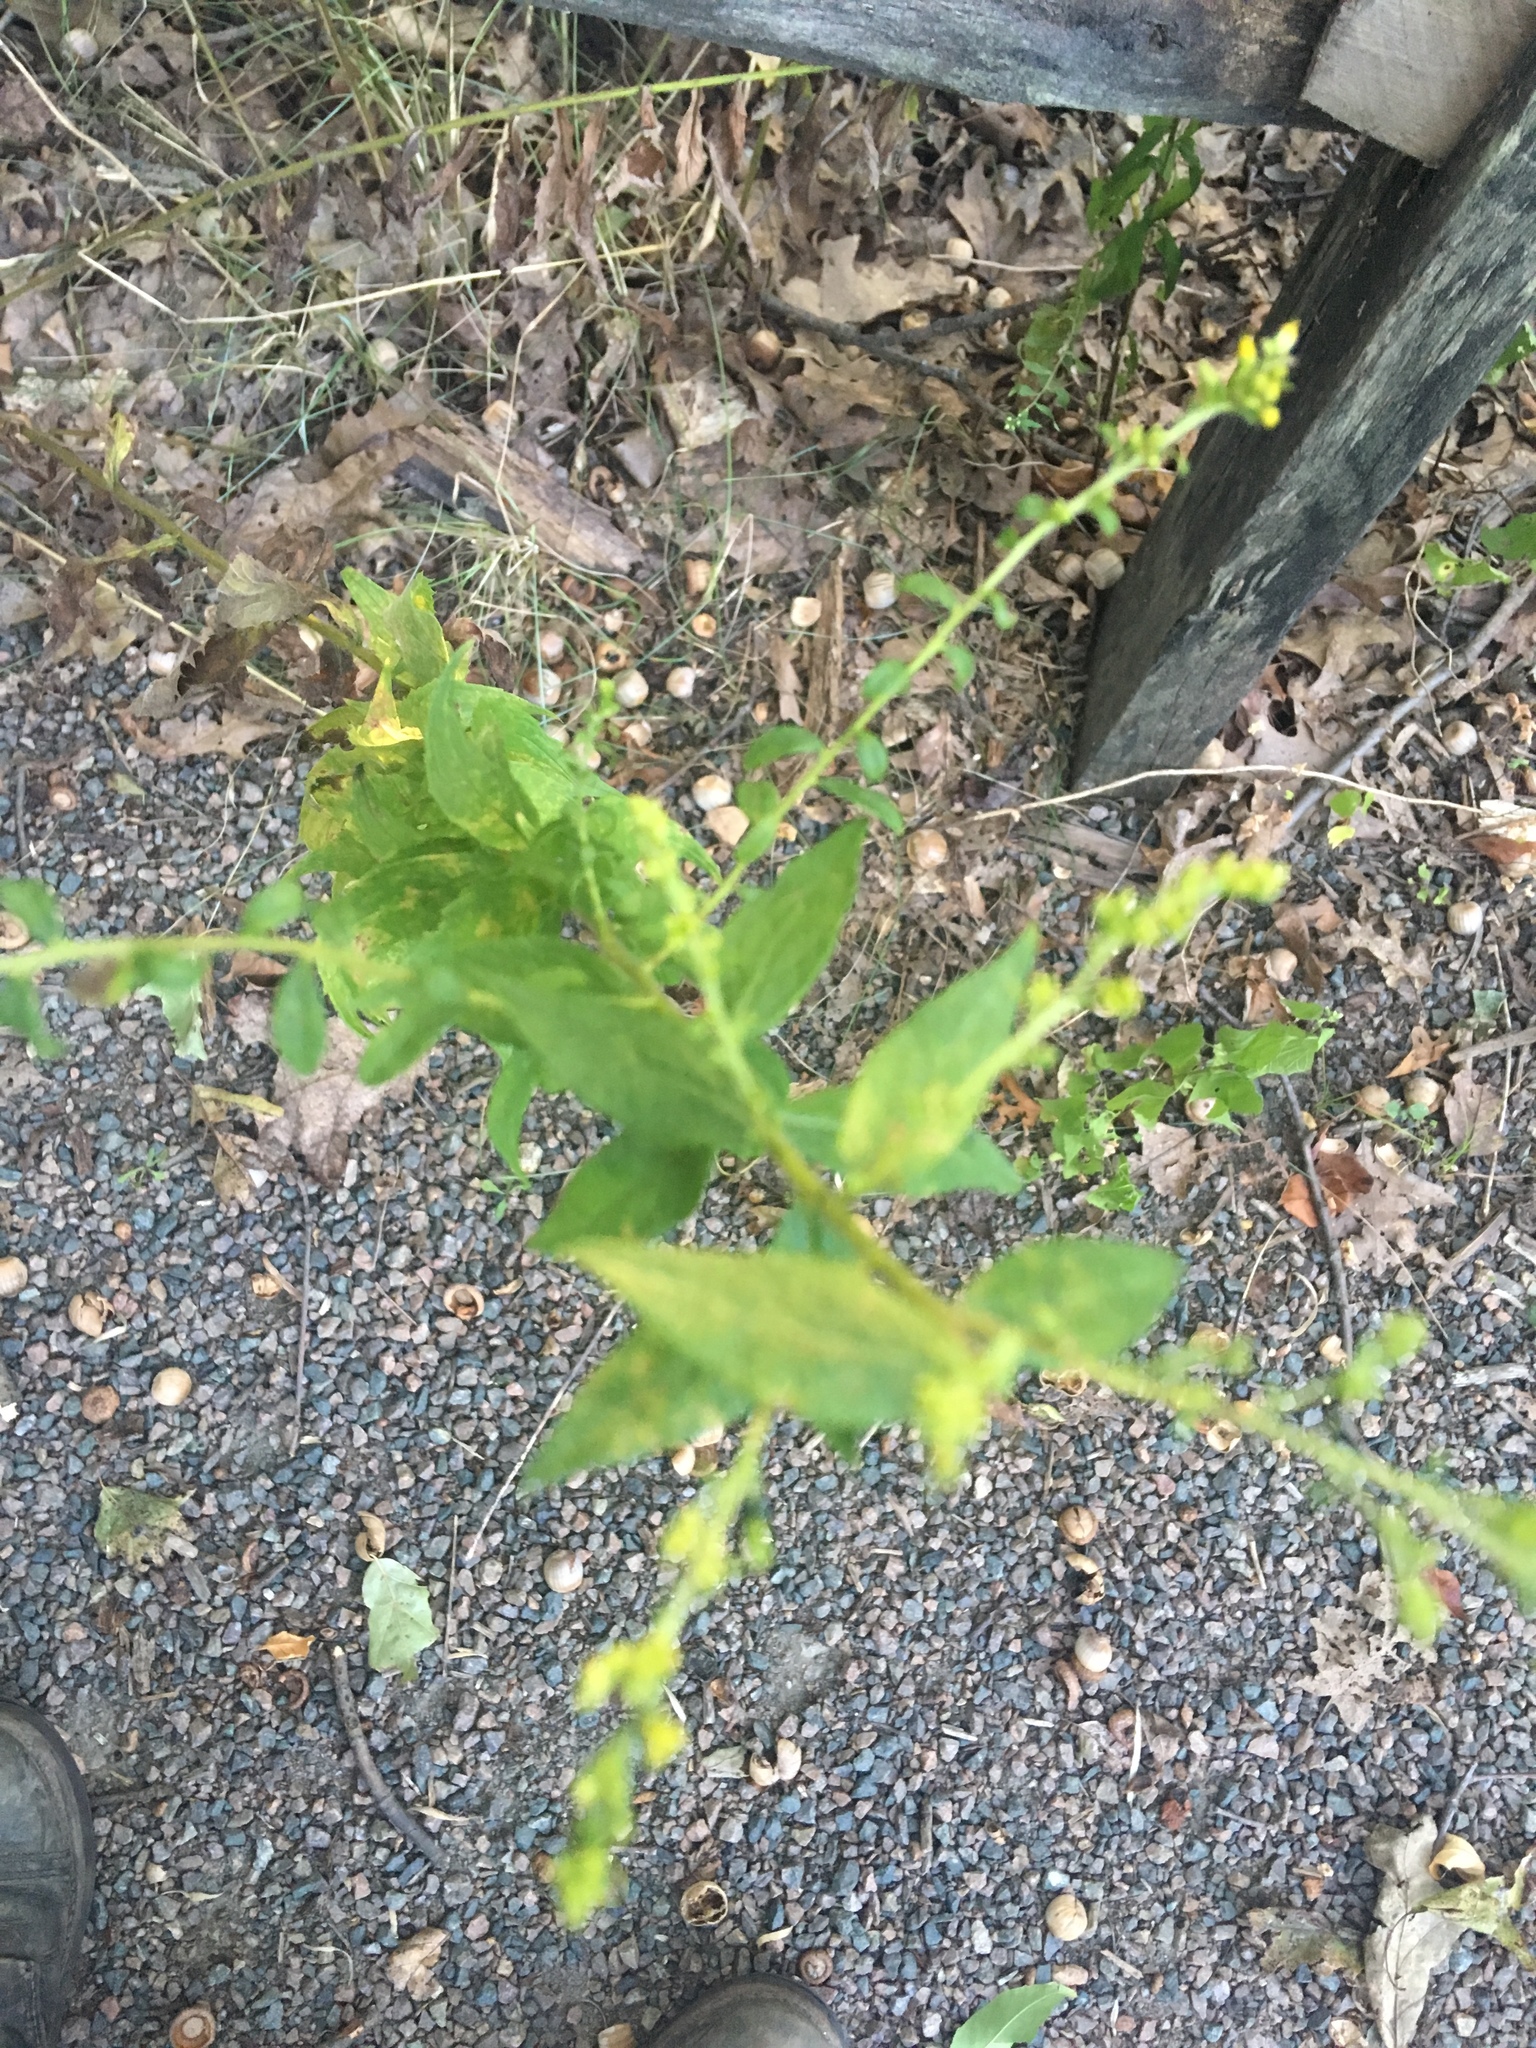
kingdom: Plantae
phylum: Tracheophyta
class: Magnoliopsida
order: Asterales
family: Asteraceae
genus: Solidago
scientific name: Solidago rugosa
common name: Rough-stemmed goldenrod
